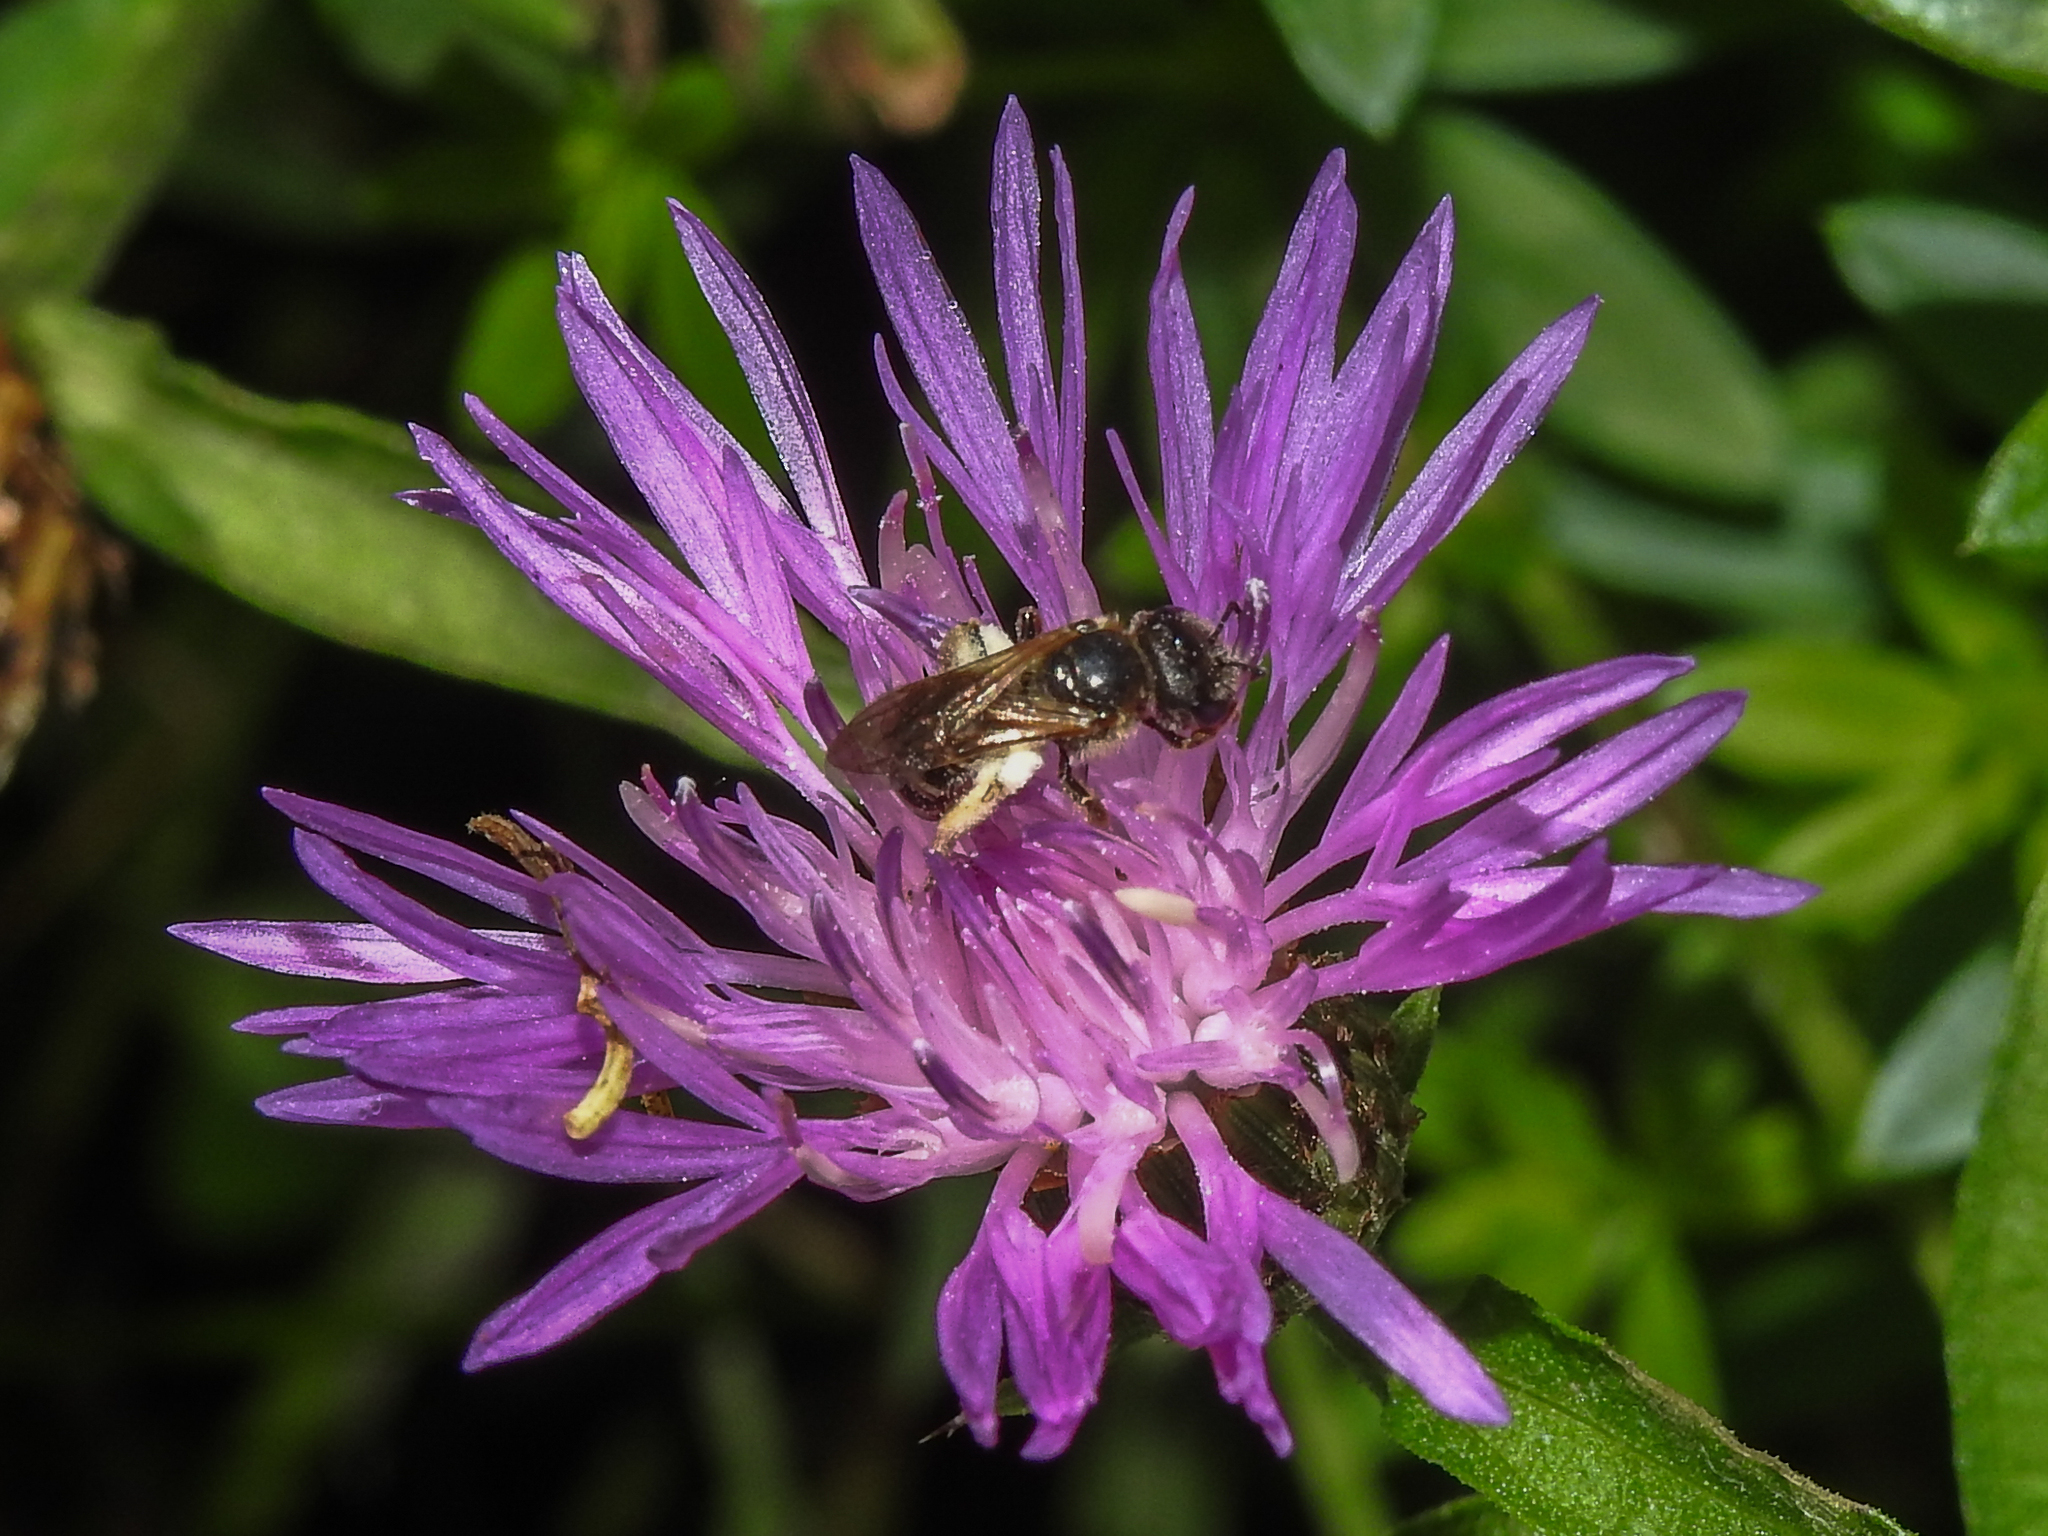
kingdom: Animalia
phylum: Arthropoda
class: Insecta
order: Hymenoptera
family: Halictidae
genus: Halictus
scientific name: Halictus ligatus
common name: Ligated furrow bee
